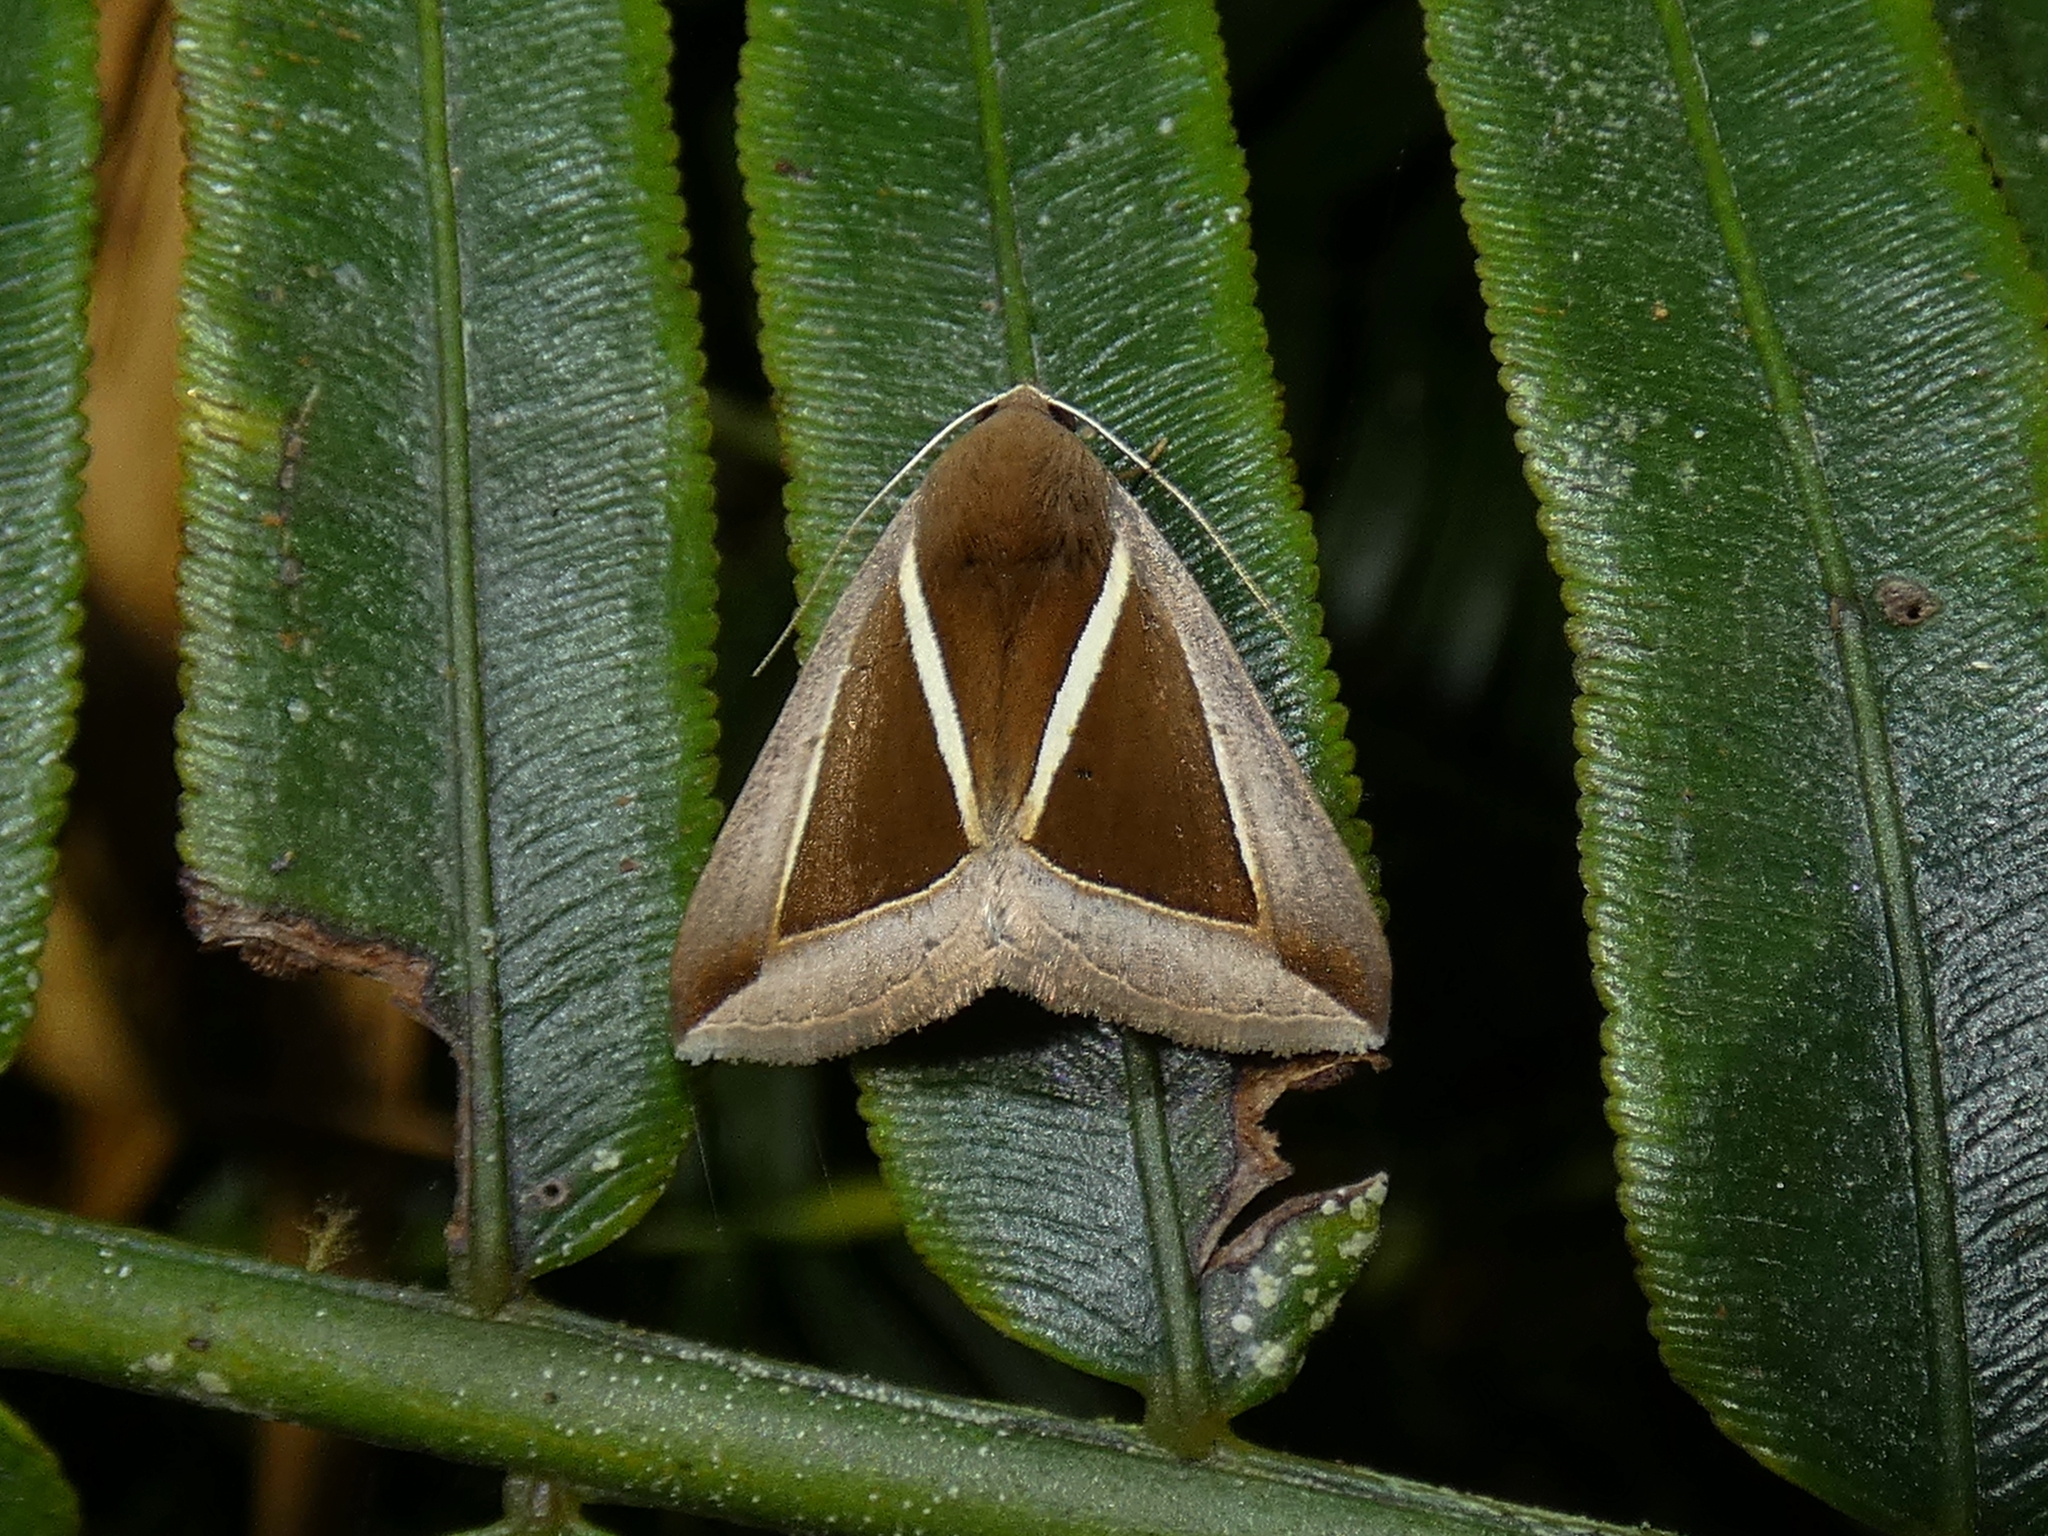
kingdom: Animalia
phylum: Arthropoda
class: Insecta
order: Lepidoptera
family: Erebidae
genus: Chalciope
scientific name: Chalciope alcyona
